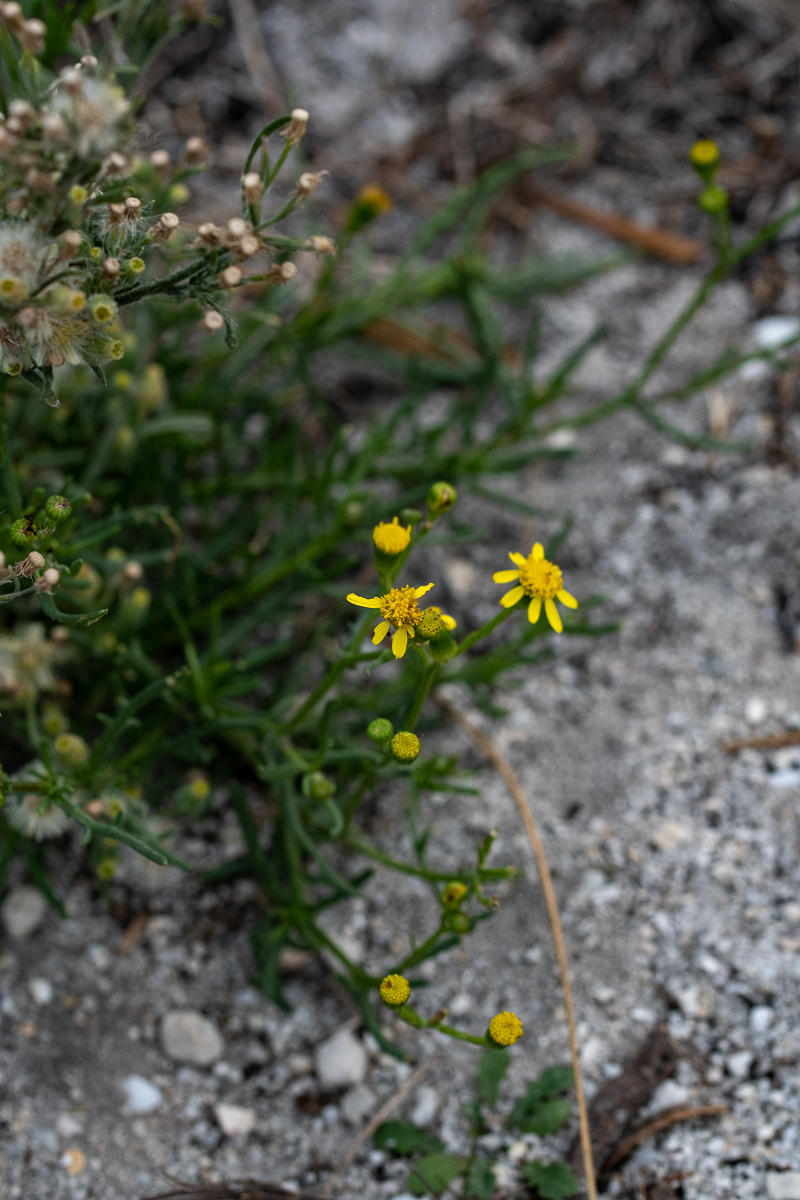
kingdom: Plantae
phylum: Tracheophyta
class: Magnoliopsida
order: Asterales
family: Asteraceae
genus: Senecio
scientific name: Senecio burchellii
